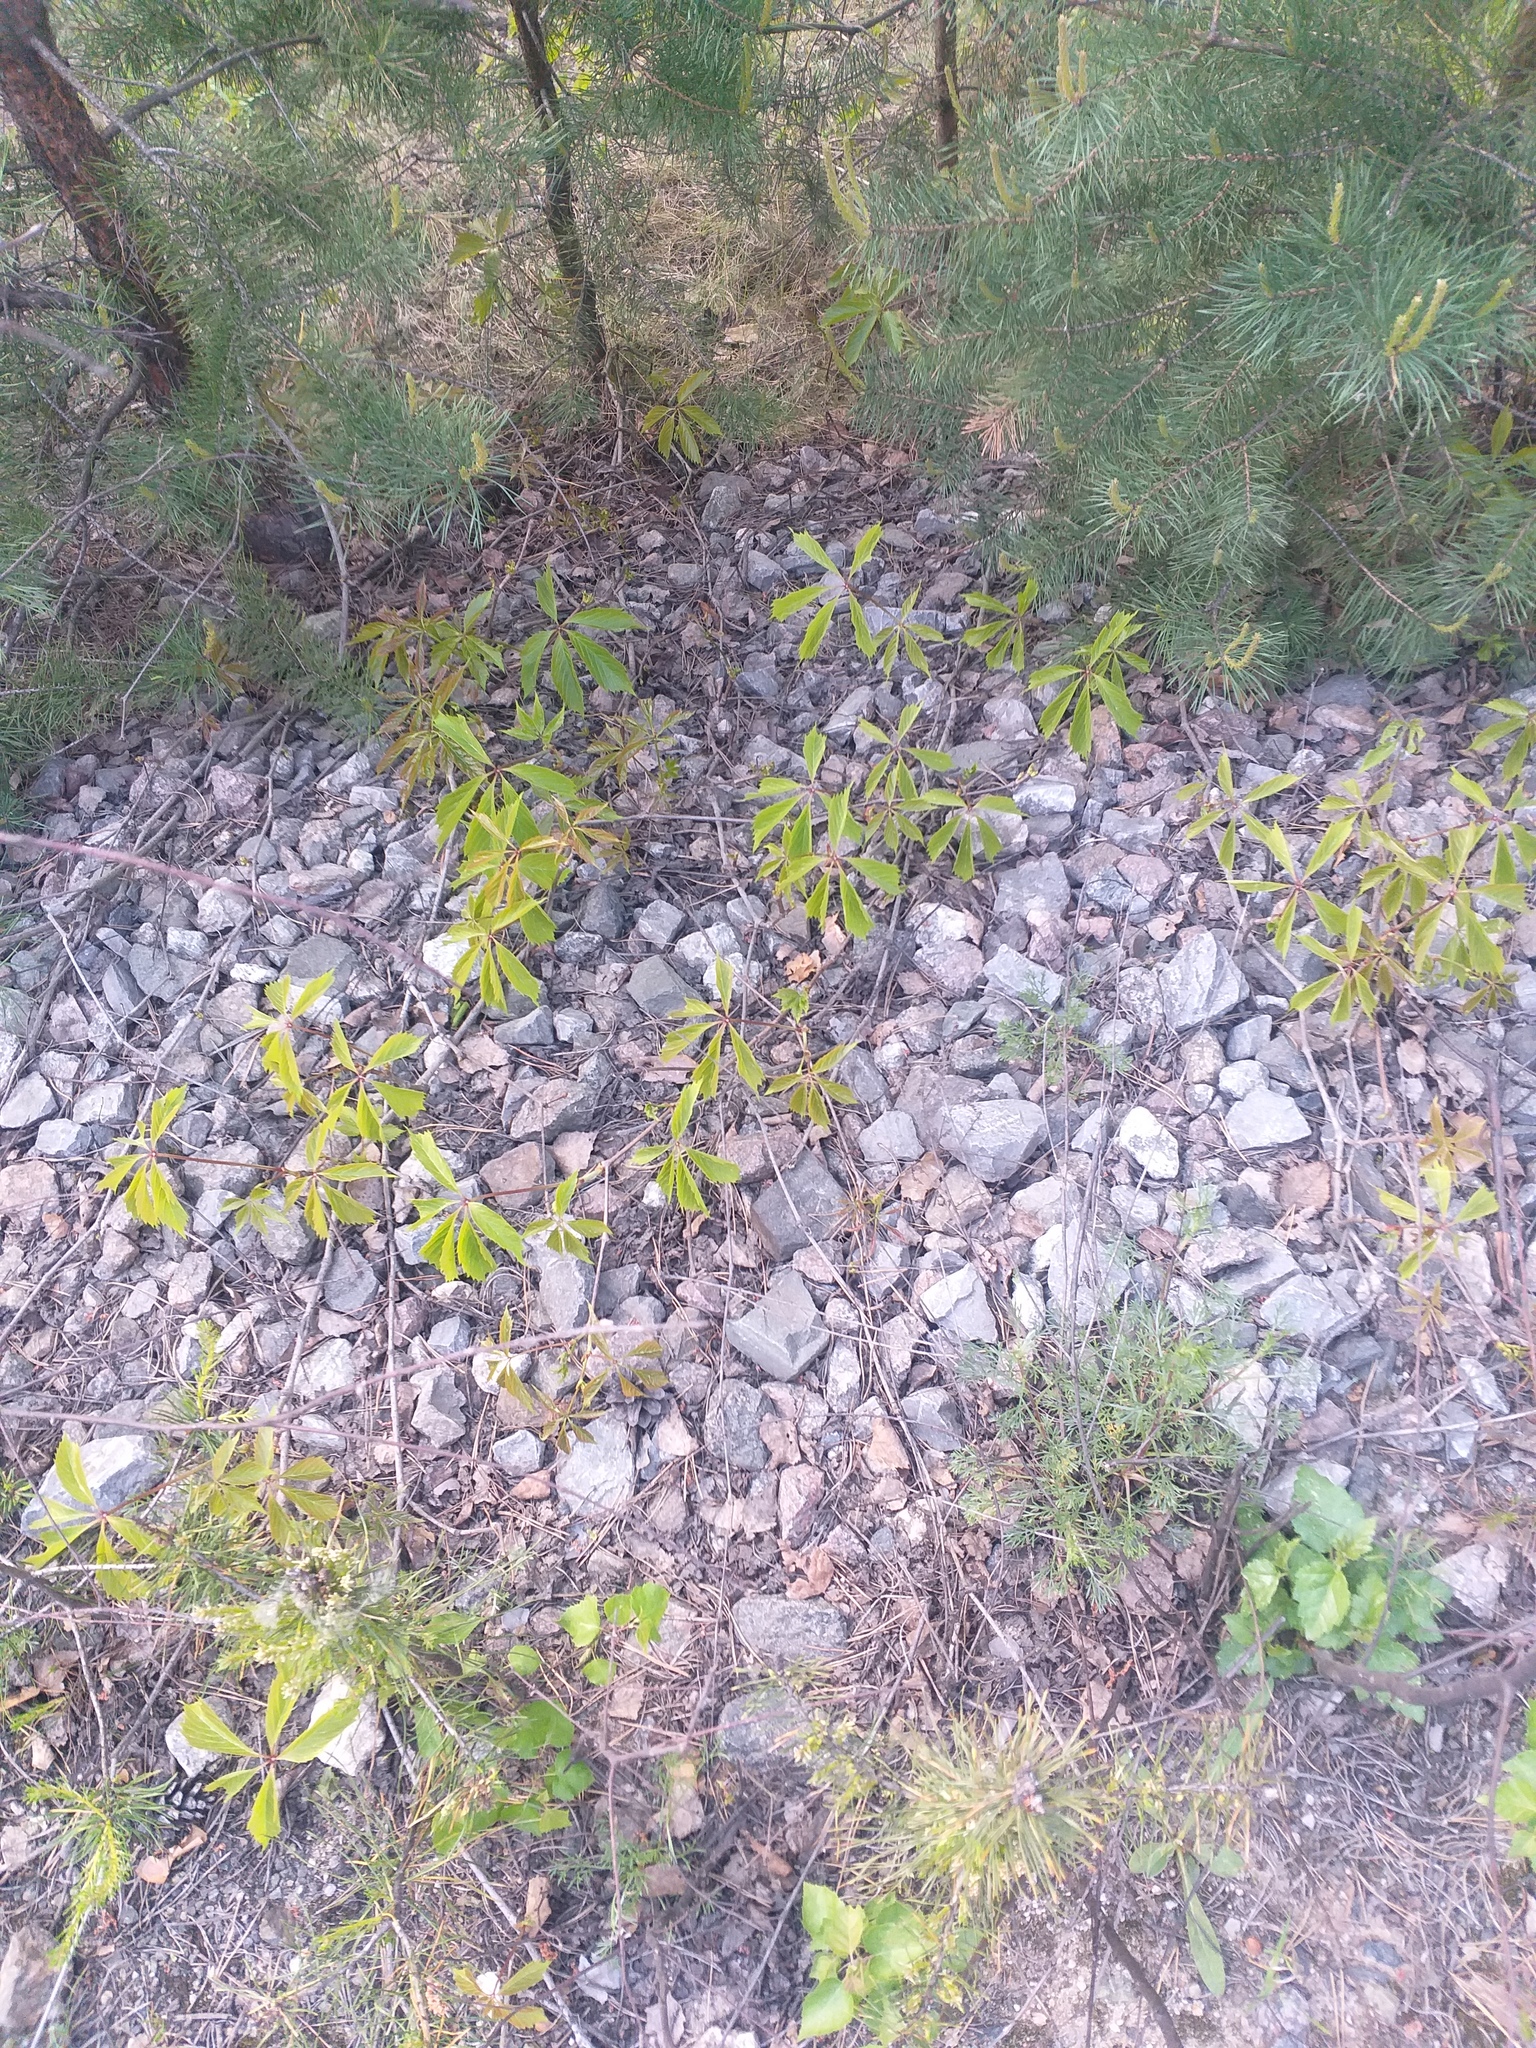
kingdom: Plantae
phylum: Tracheophyta
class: Magnoliopsida
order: Vitales
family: Vitaceae
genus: Parthenocissus
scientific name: Parthenocissus inserta
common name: False virginia-creeper
